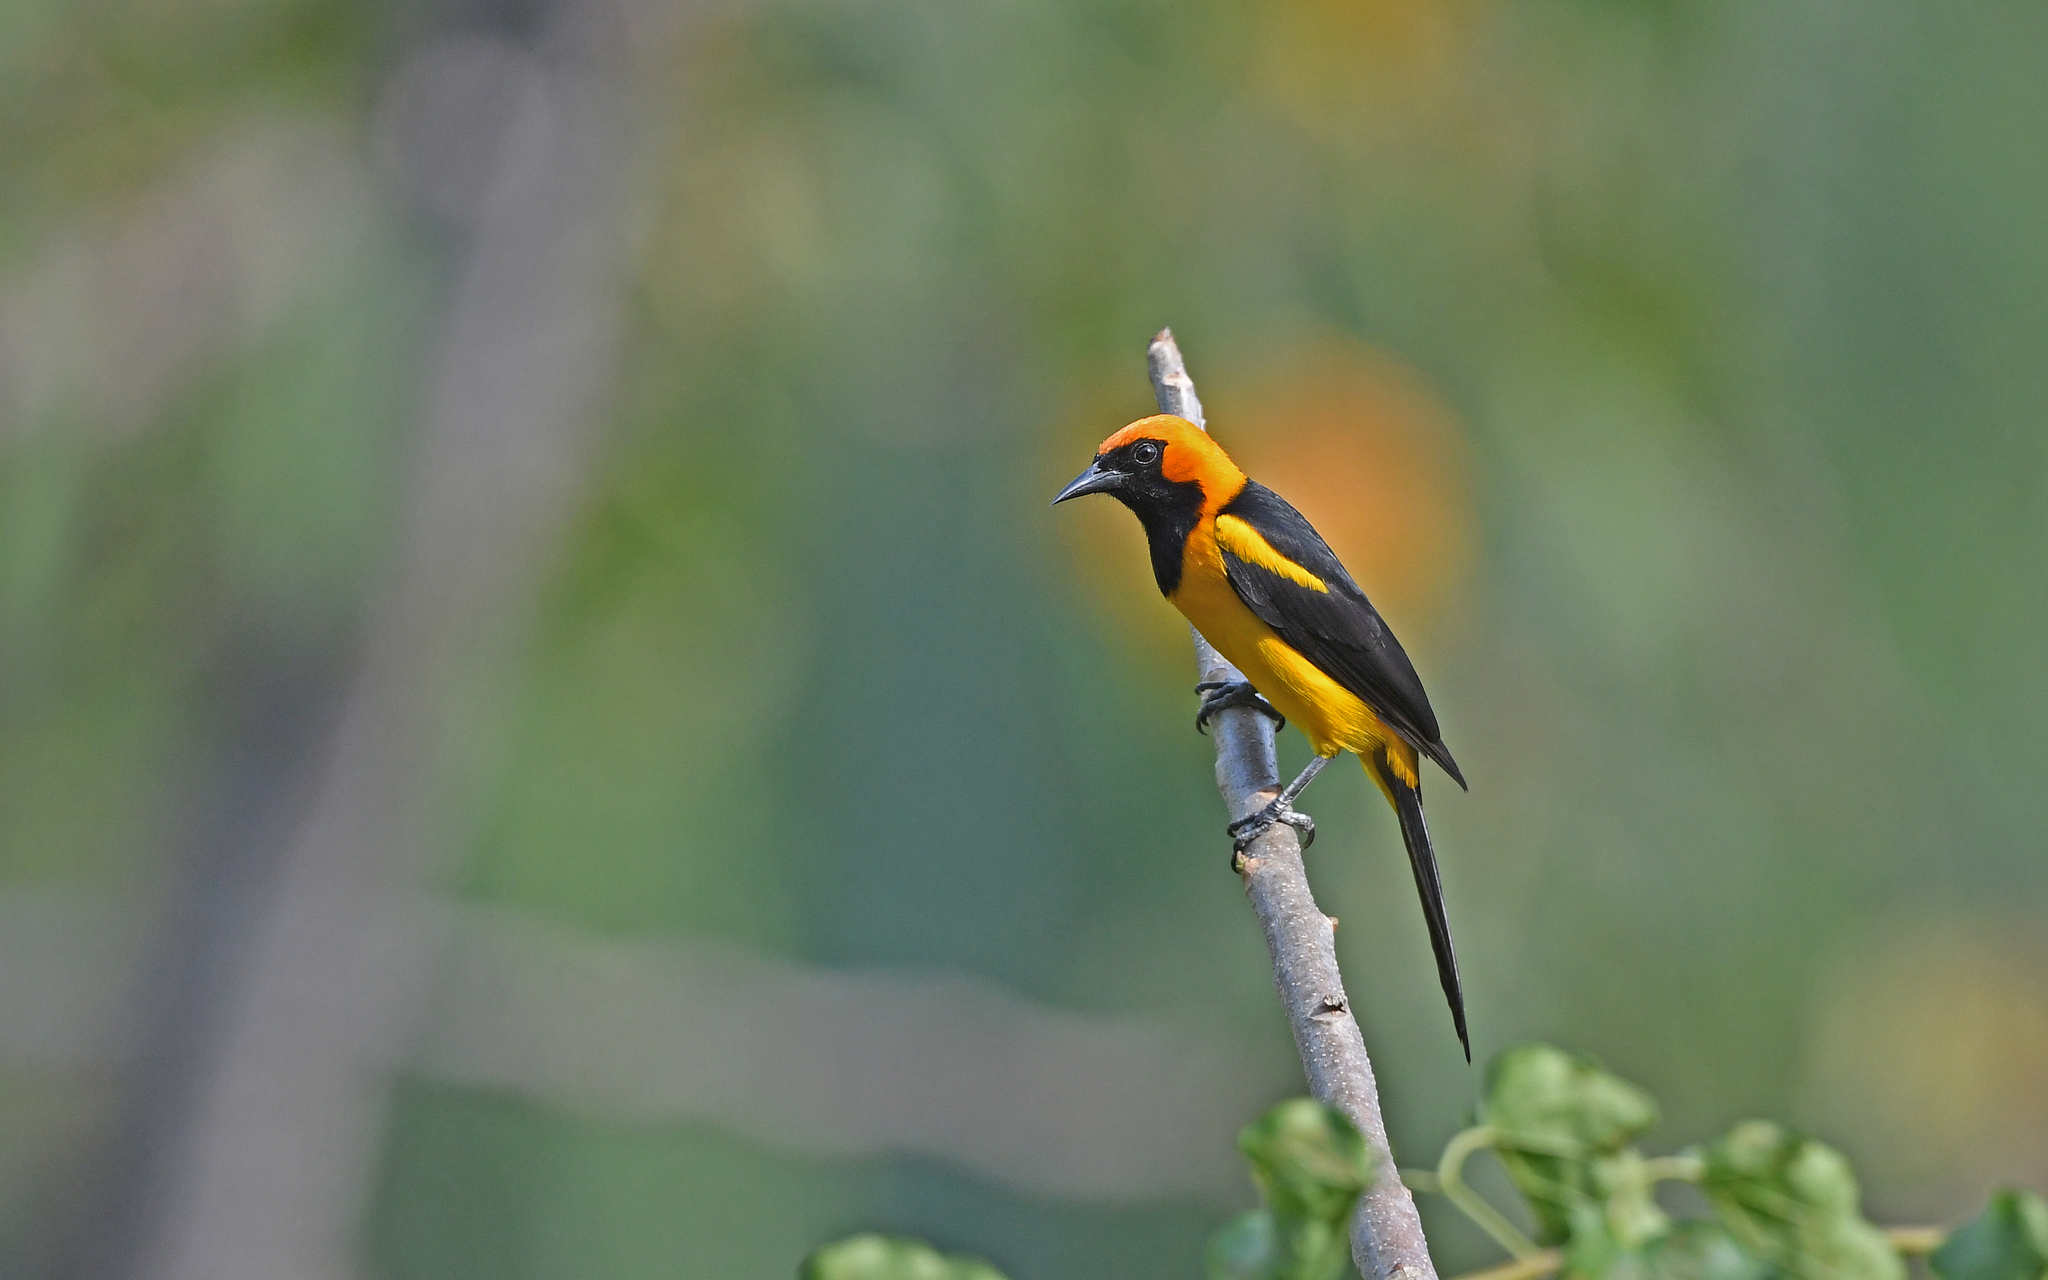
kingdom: Animalia
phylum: Chordata
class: Aves
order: Passeriformes
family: Icteridae
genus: Icterus
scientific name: Icterus auricapillus
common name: Orange-crowned oriole
